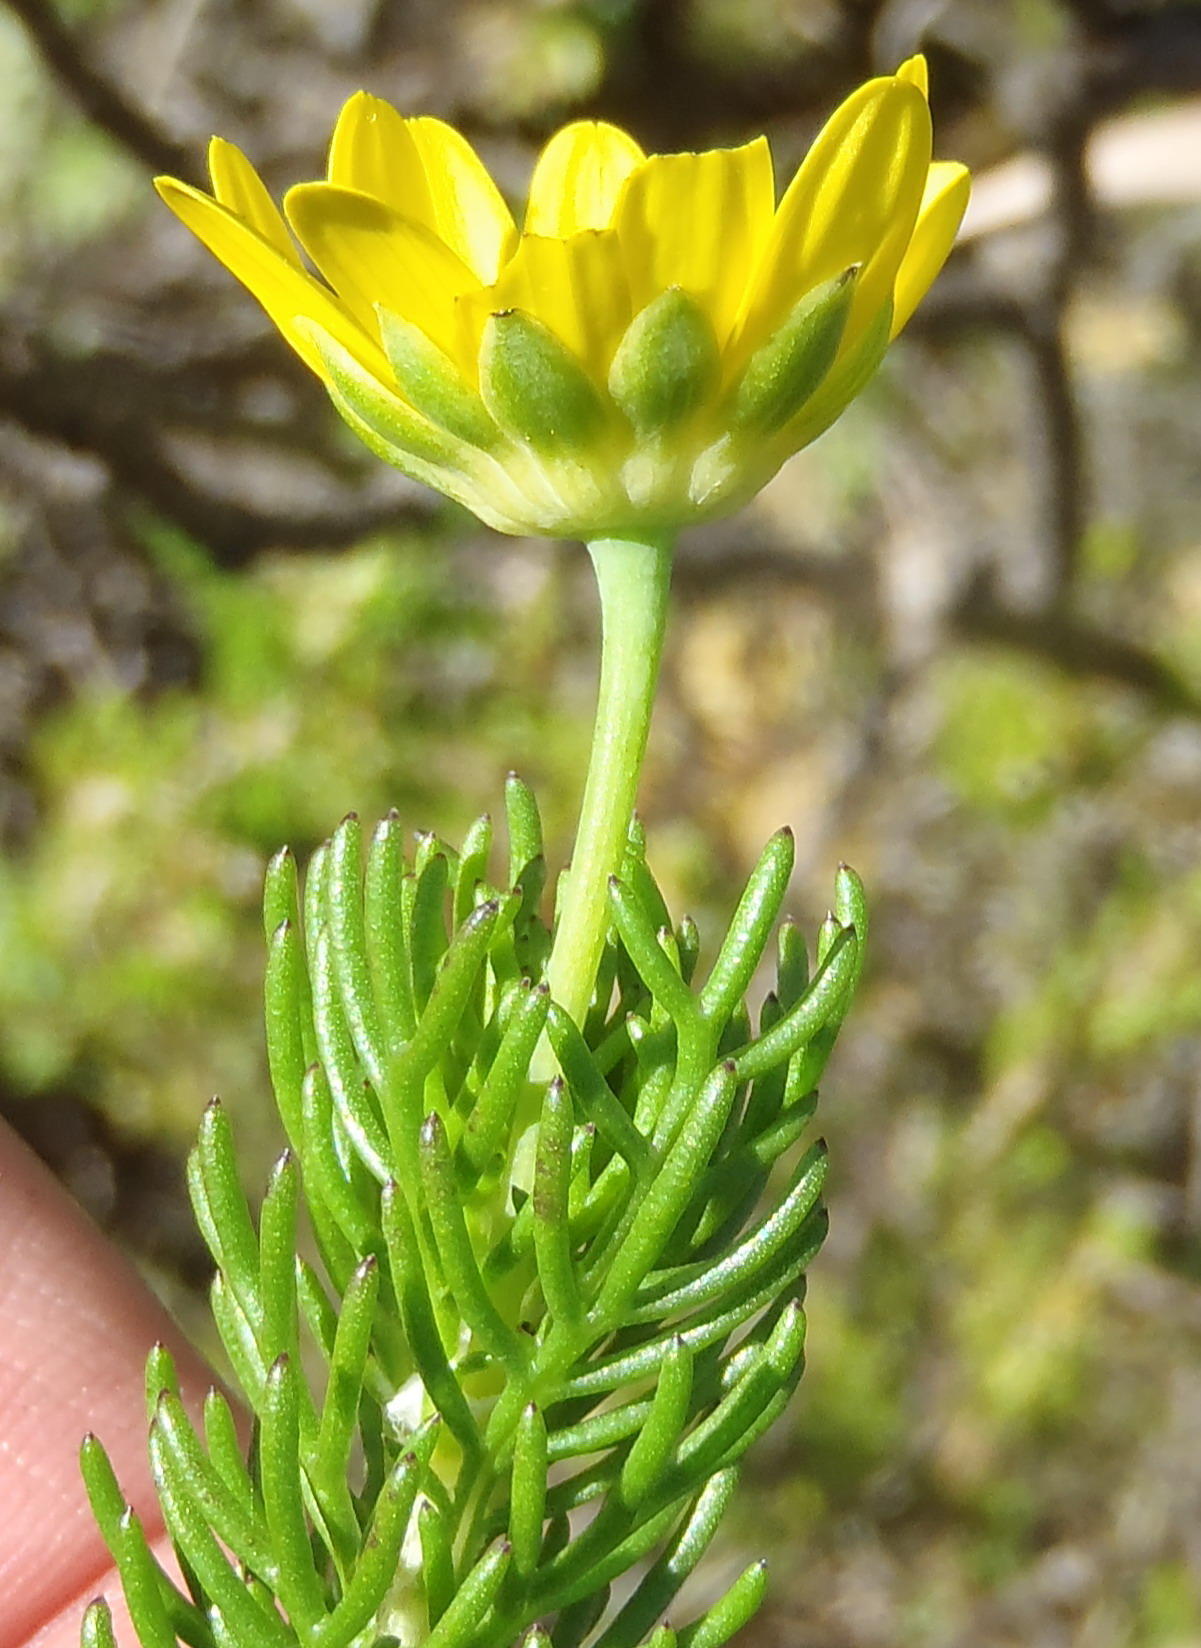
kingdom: Plantae
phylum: Tracheophyta
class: Magnoliopsida
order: Asterales
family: Asteraceae
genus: Euryops
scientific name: Euryops pinnatipartitus
